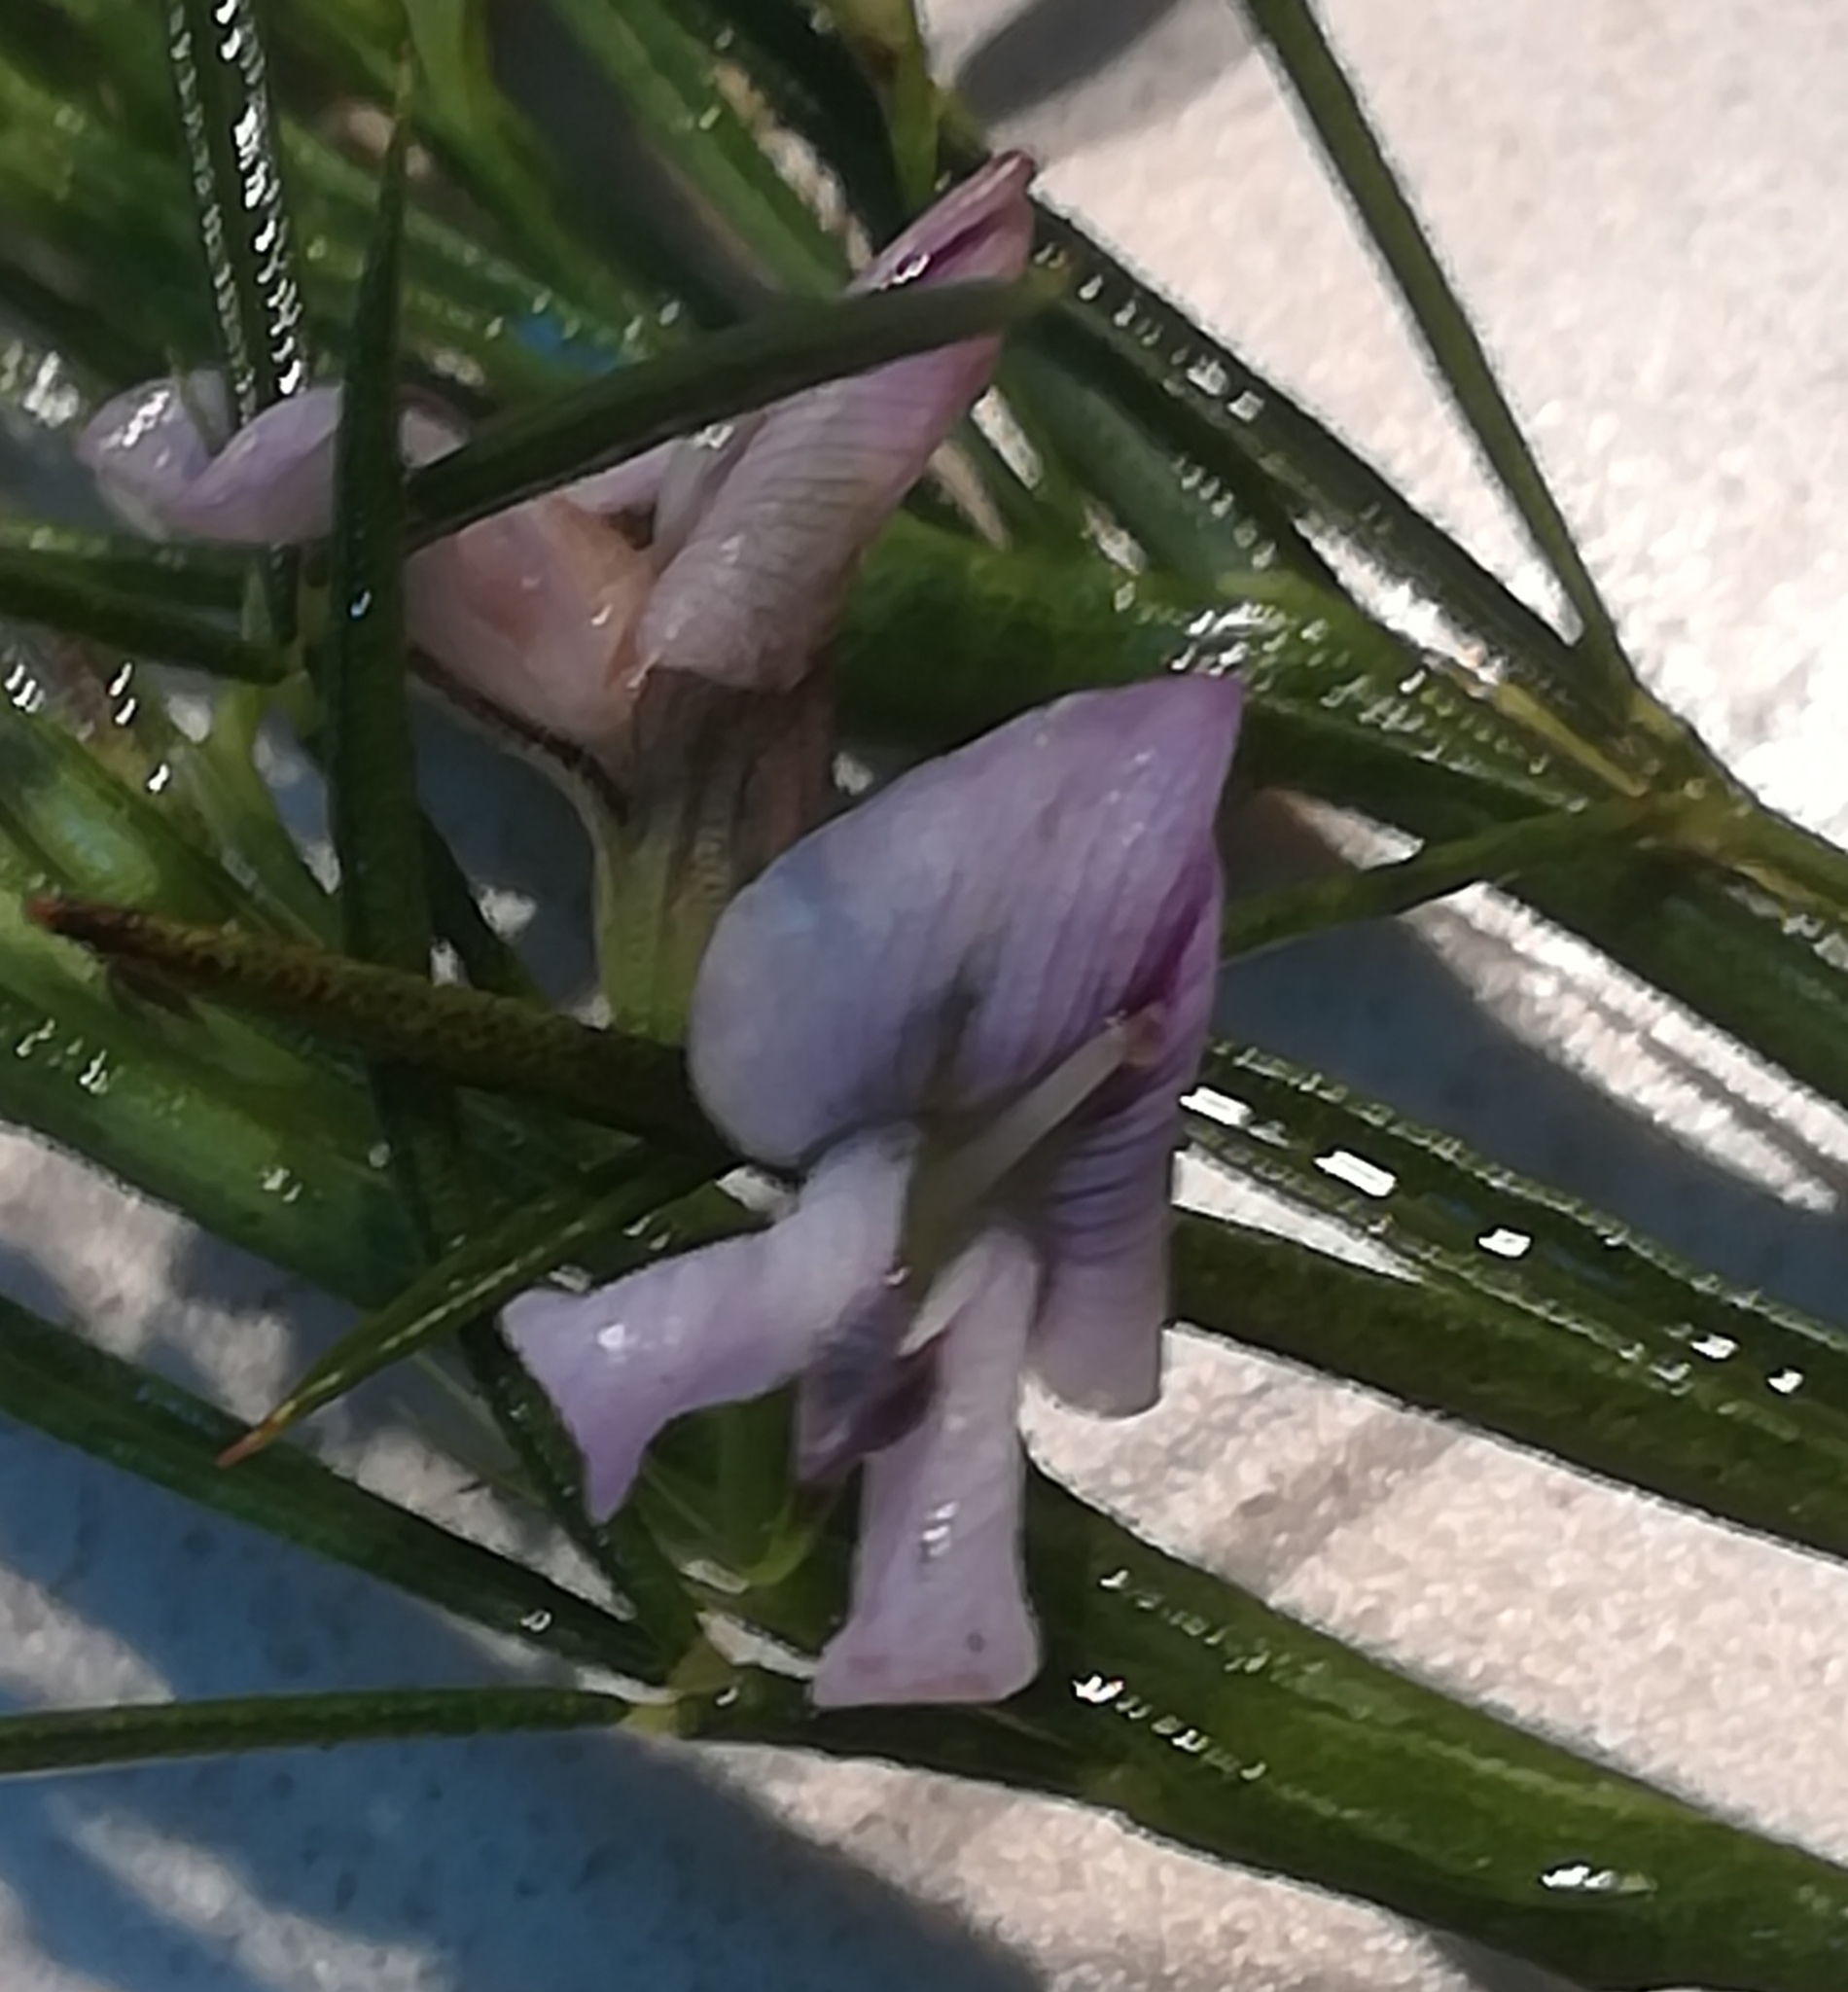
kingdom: Plantae
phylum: Tracheophyta
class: Magnoliopsida
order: Fabales
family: Fabaceae
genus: Psoralea
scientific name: Psoralea fascicularis
